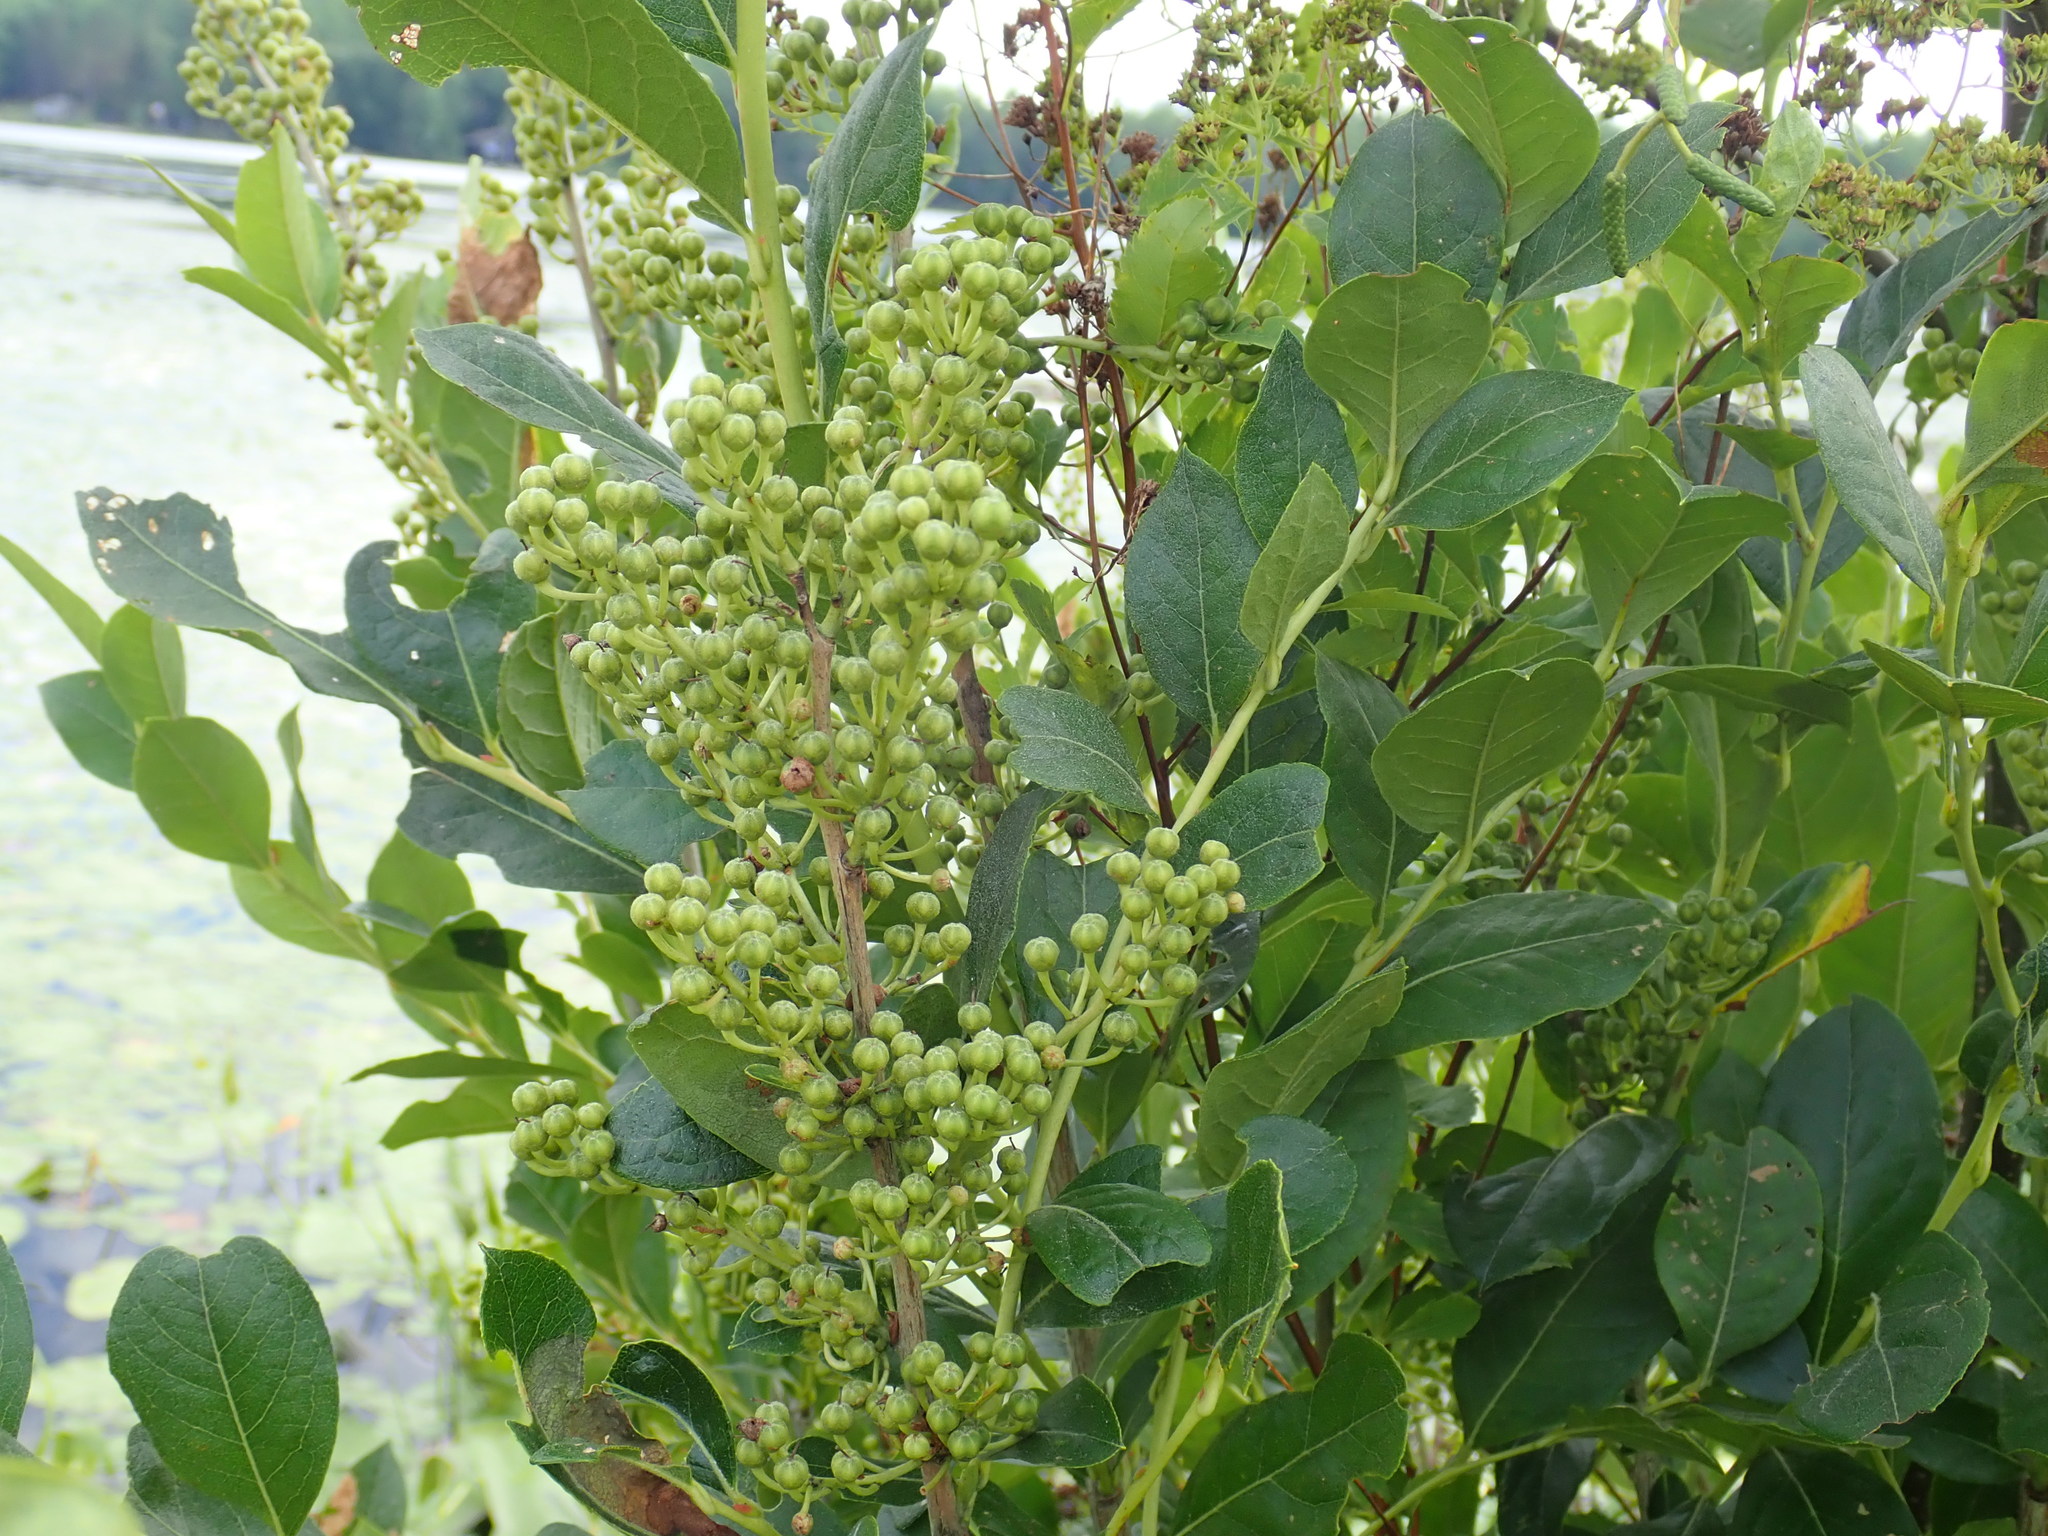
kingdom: Plantae
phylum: Tracheophyta
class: Magnoliopsida
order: Ericales
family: Ericaceae
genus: Lyonia
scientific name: Lyonia ligustrina
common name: Maleberry
